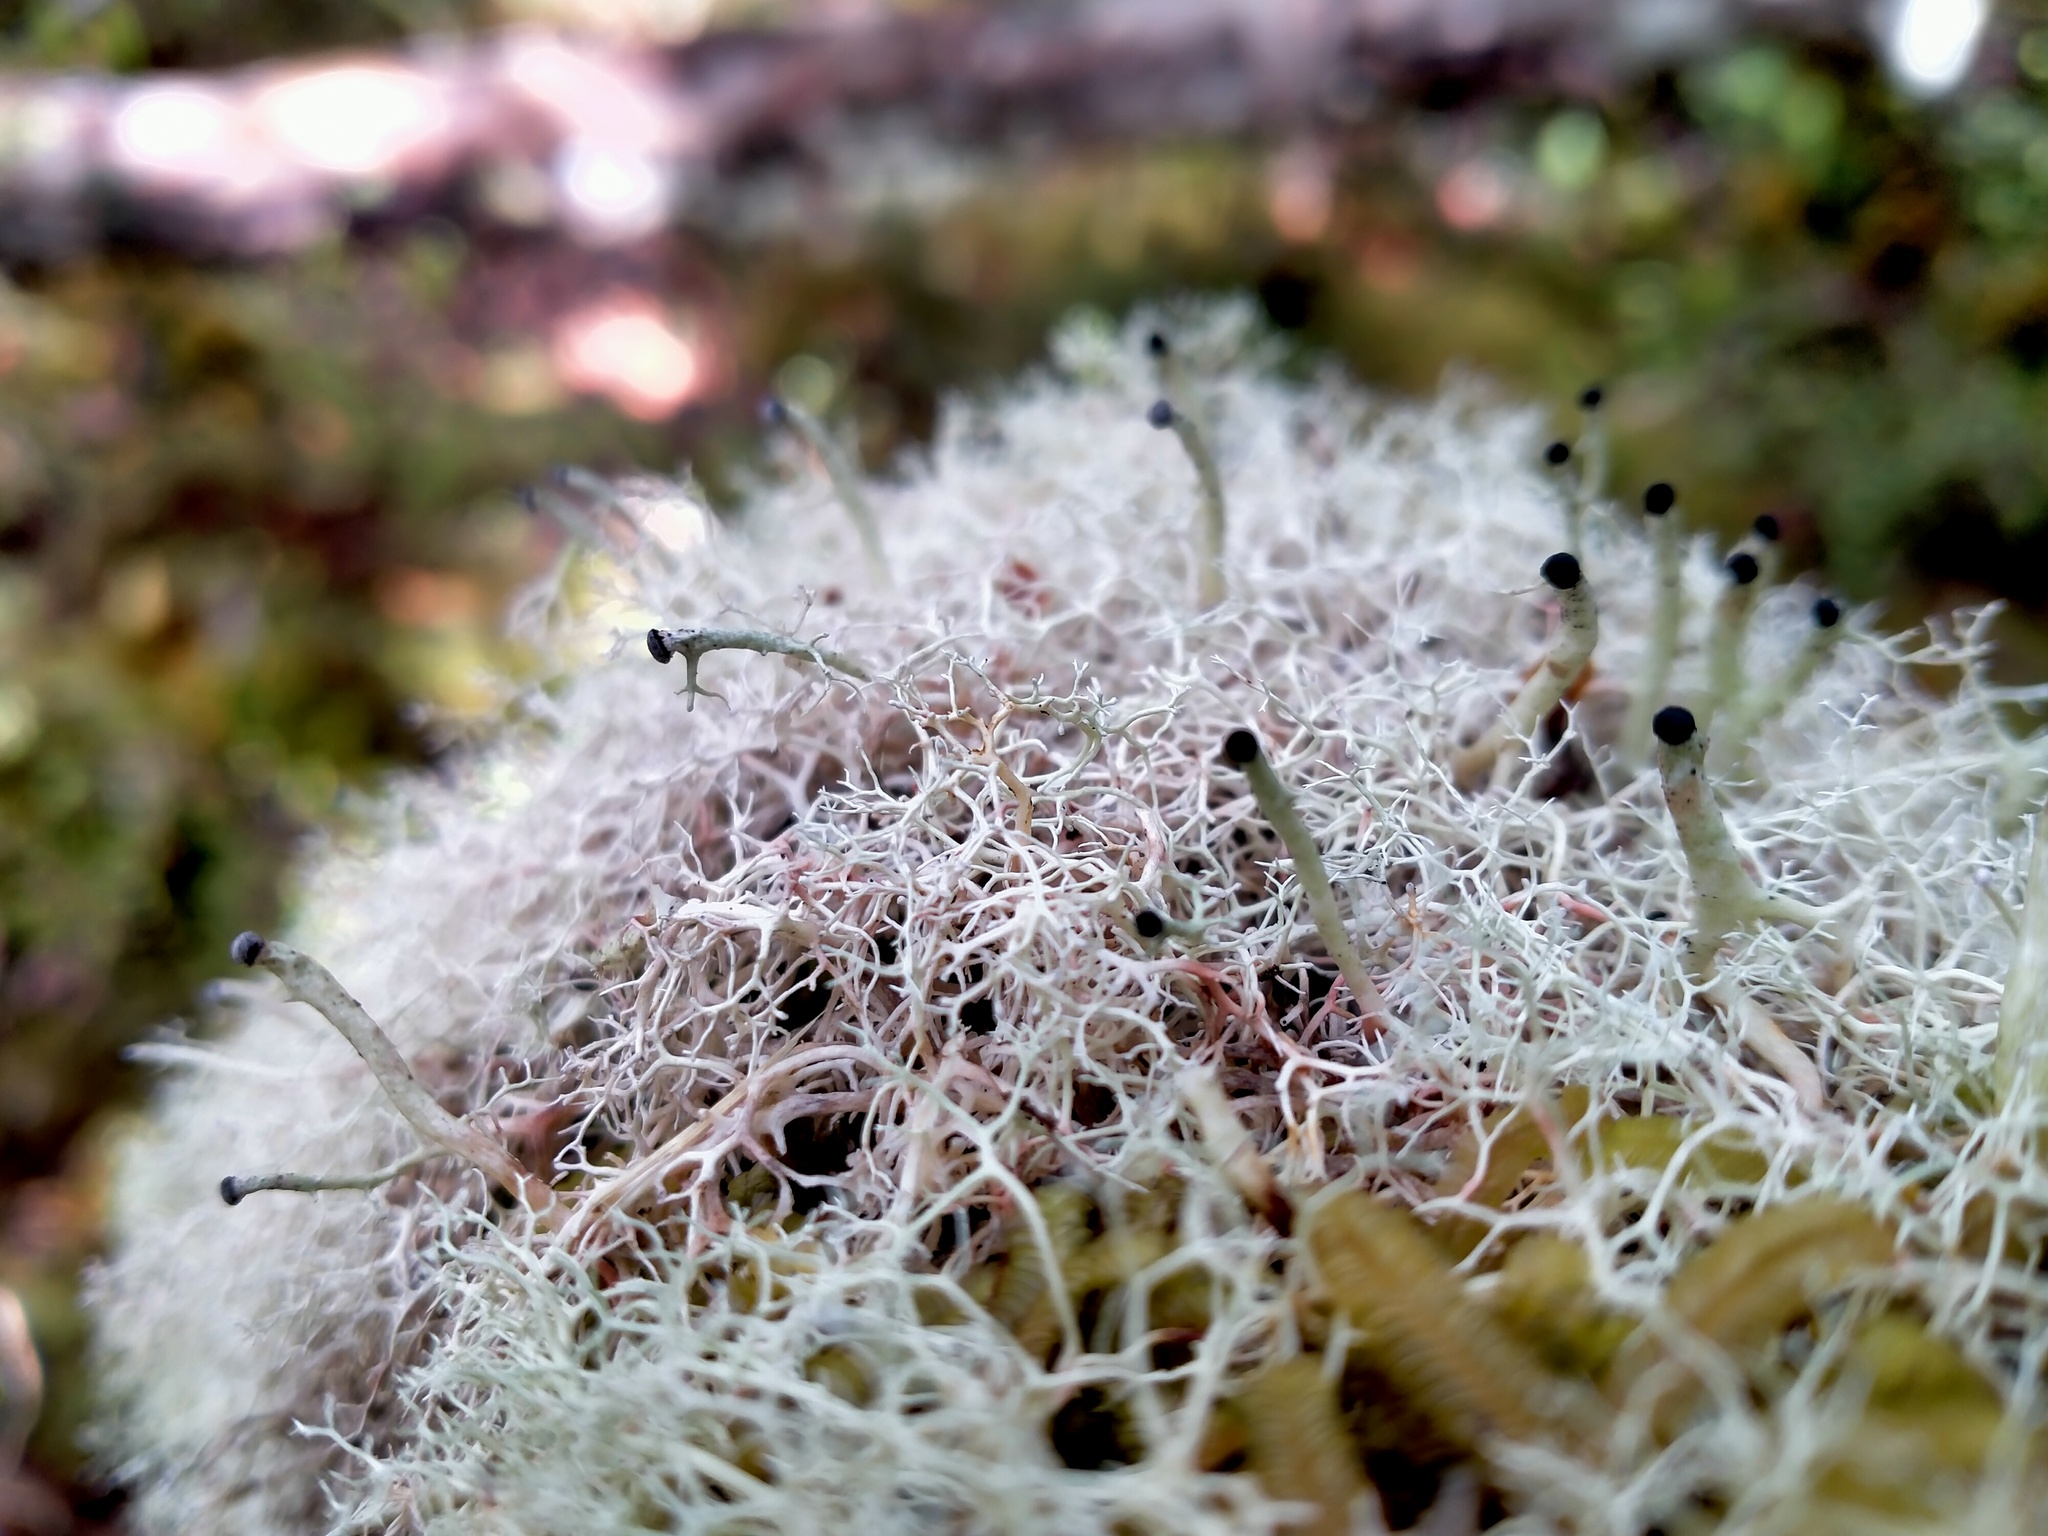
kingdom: Fungi
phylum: Ascomycota
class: Lecanoromycetes
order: Lecanorales
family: Sphaerophoraceae
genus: Leifidium
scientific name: Leifidium tenerum
